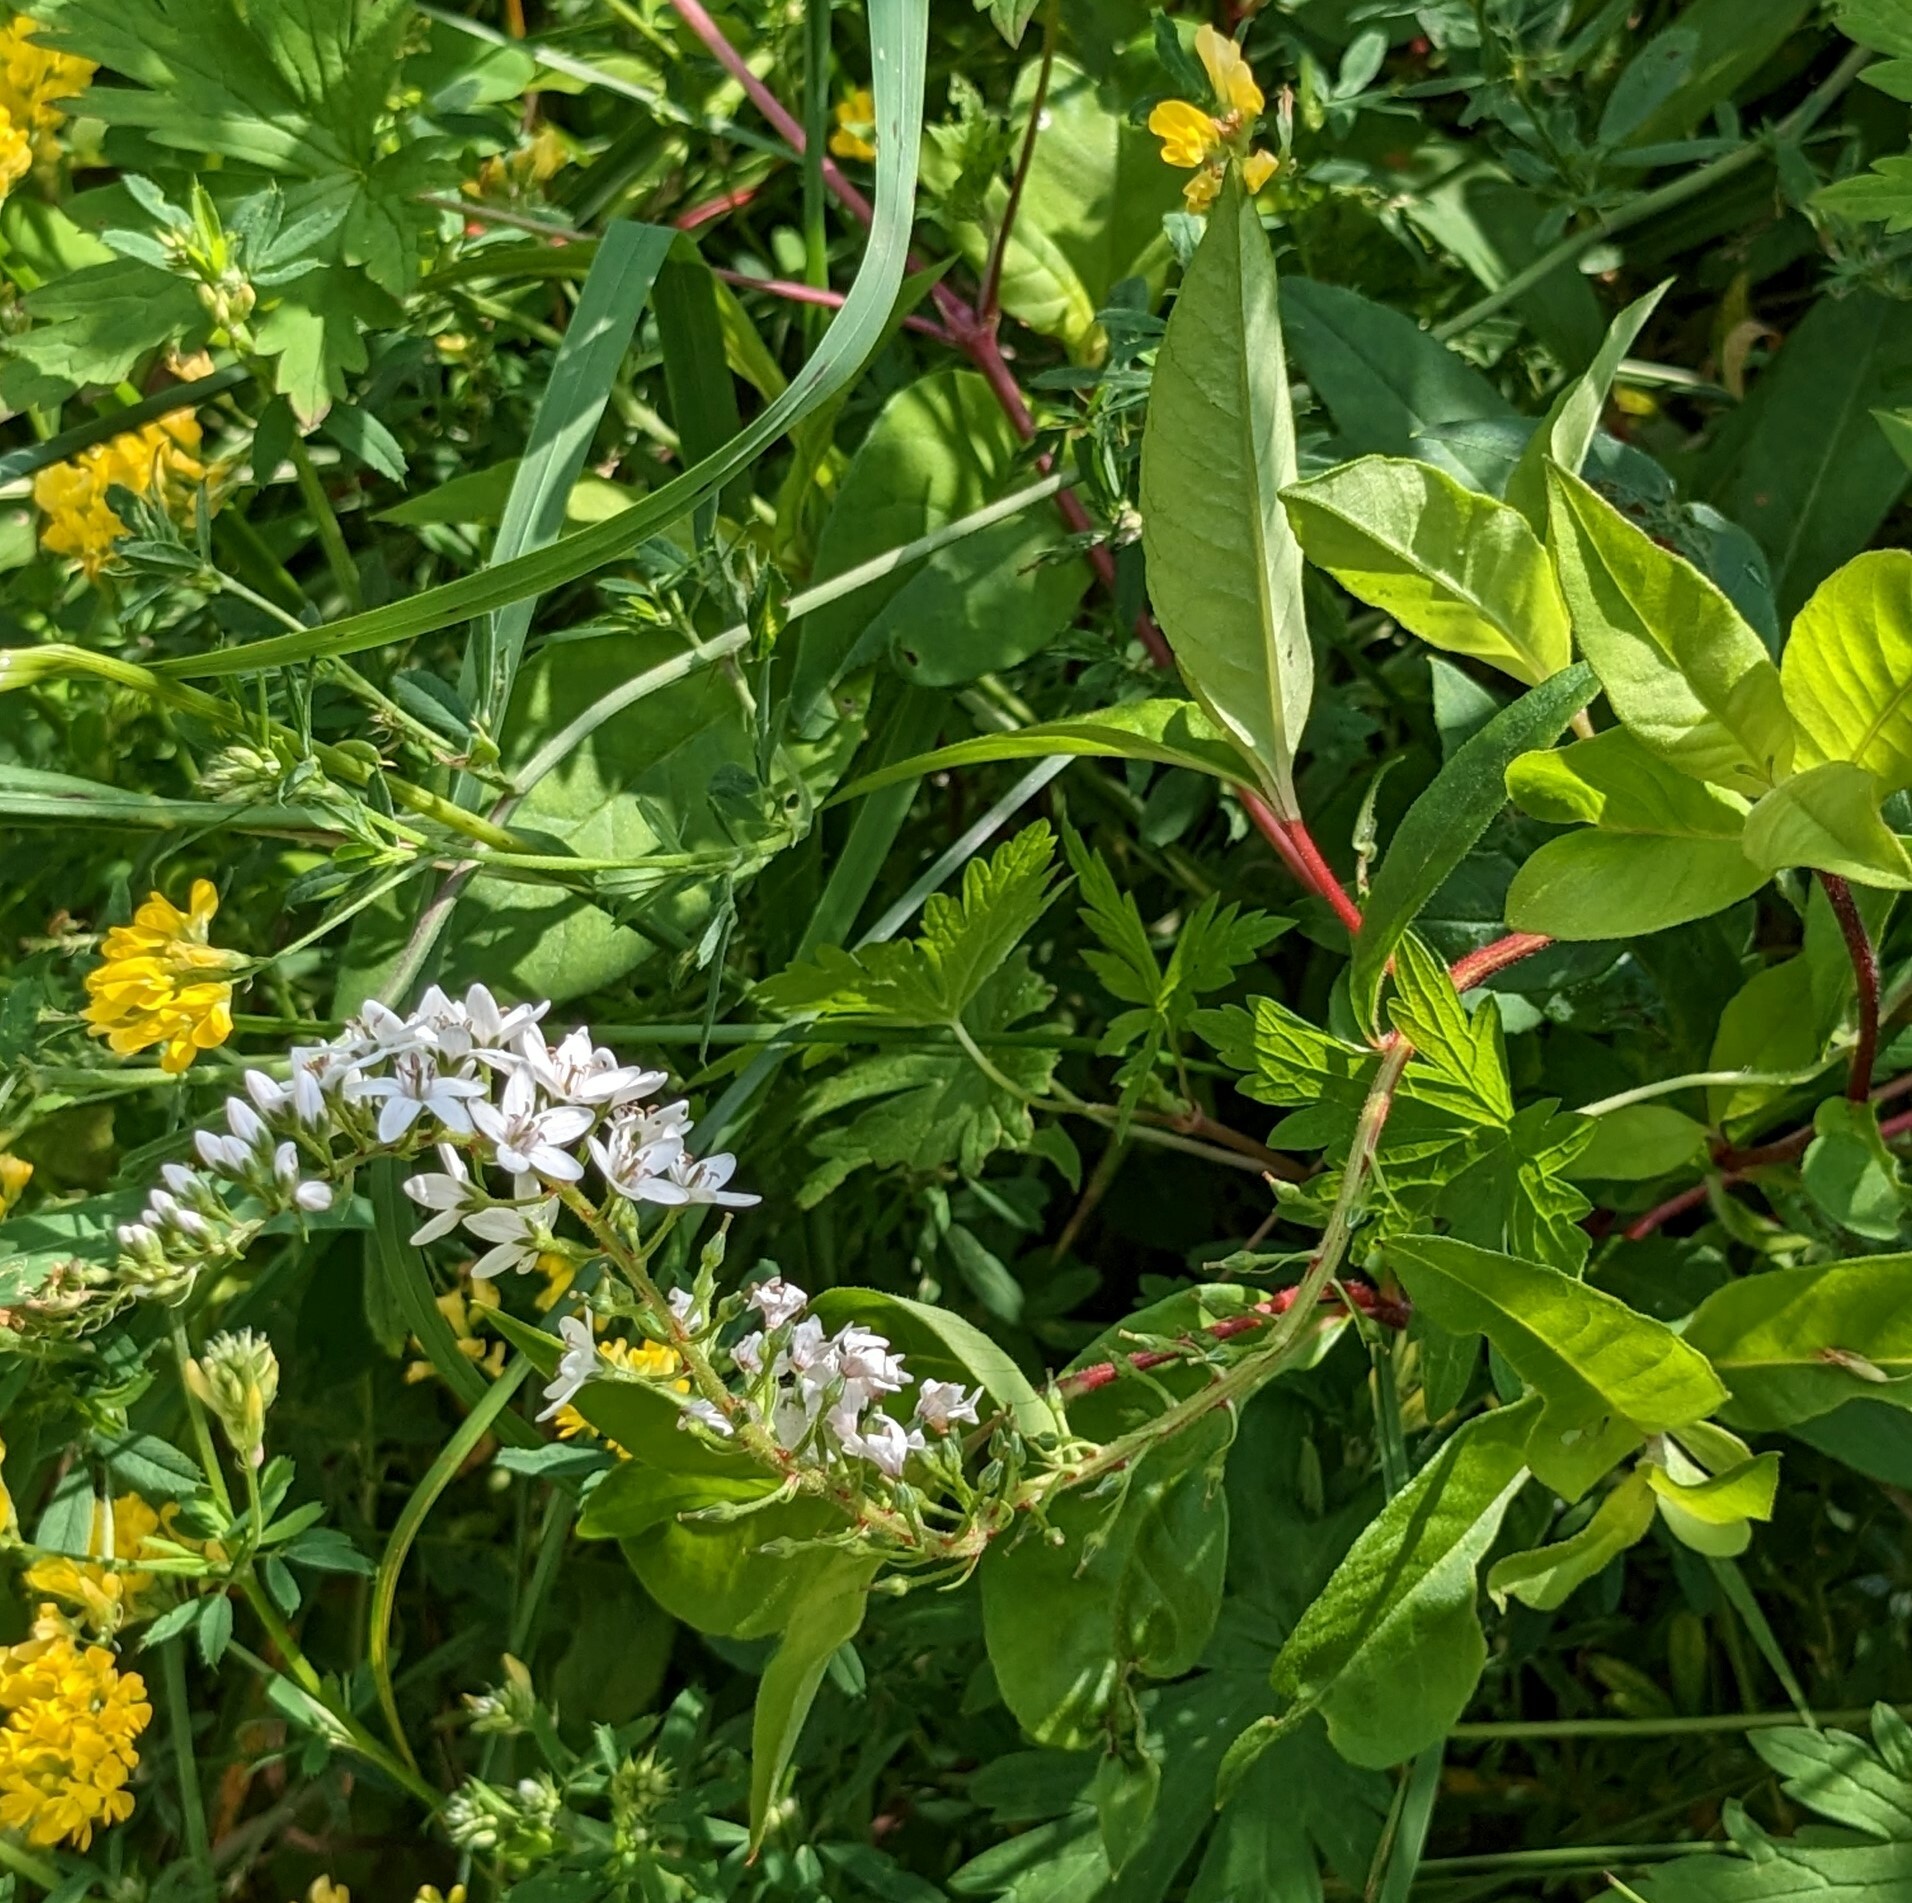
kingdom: Plantae
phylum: Tracheophyta
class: Magnoliopsida
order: Ericales
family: Primulaceae
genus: Lysimachia
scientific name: Lysimachia clethroides
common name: Gooseneck loosestrife
